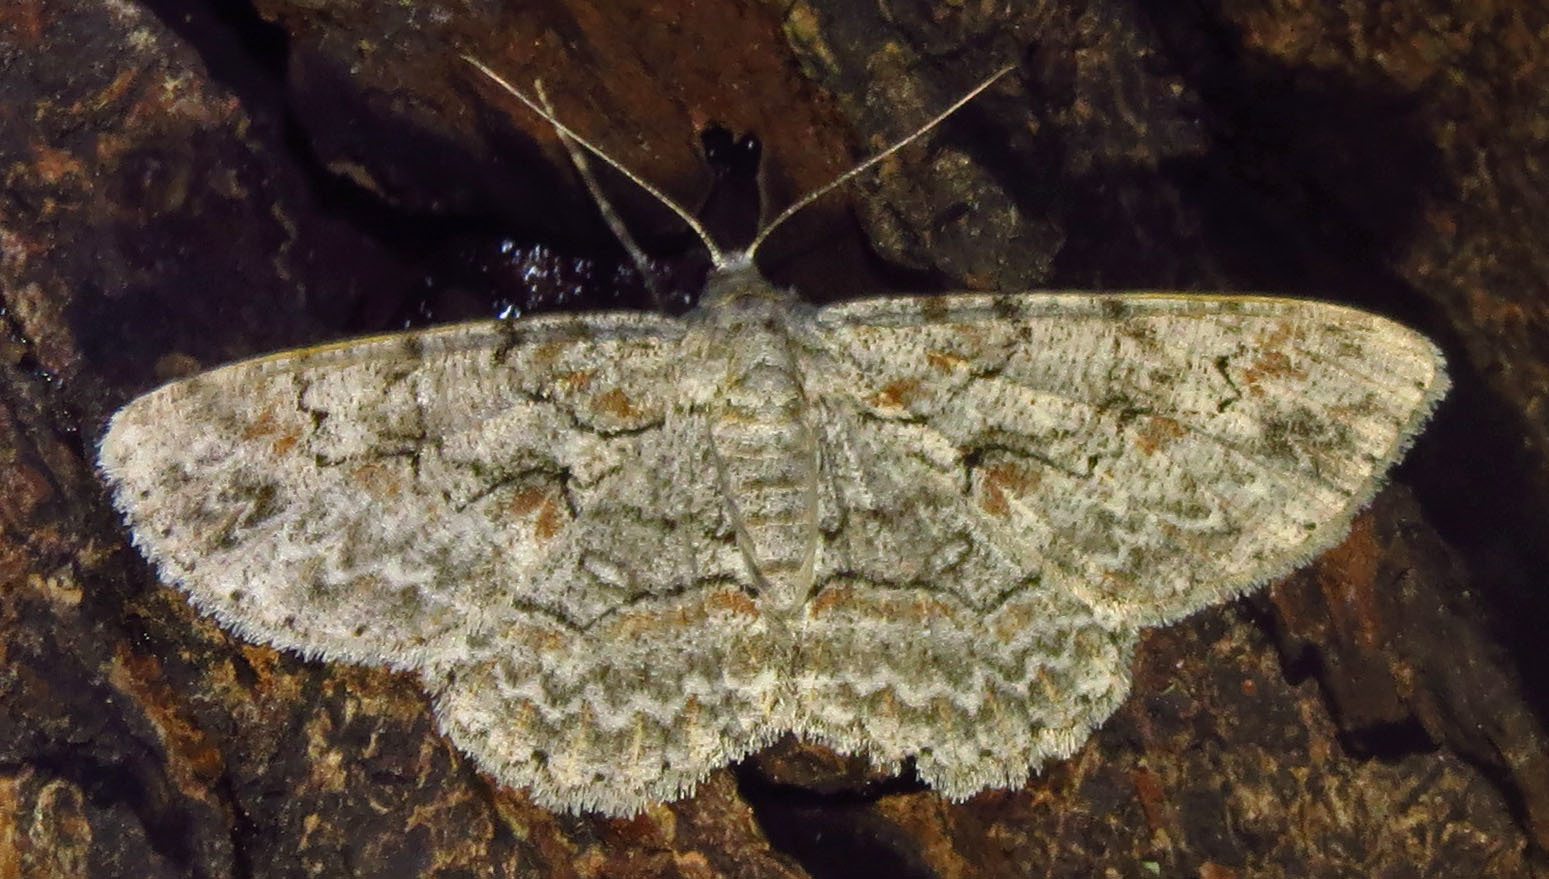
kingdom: Animalia
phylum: Arthropoda
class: Insecta
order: Lepidoptera
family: Geometridae
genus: Iridopsis
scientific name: Iridopsis defectaria
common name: Brown-shaded gray
